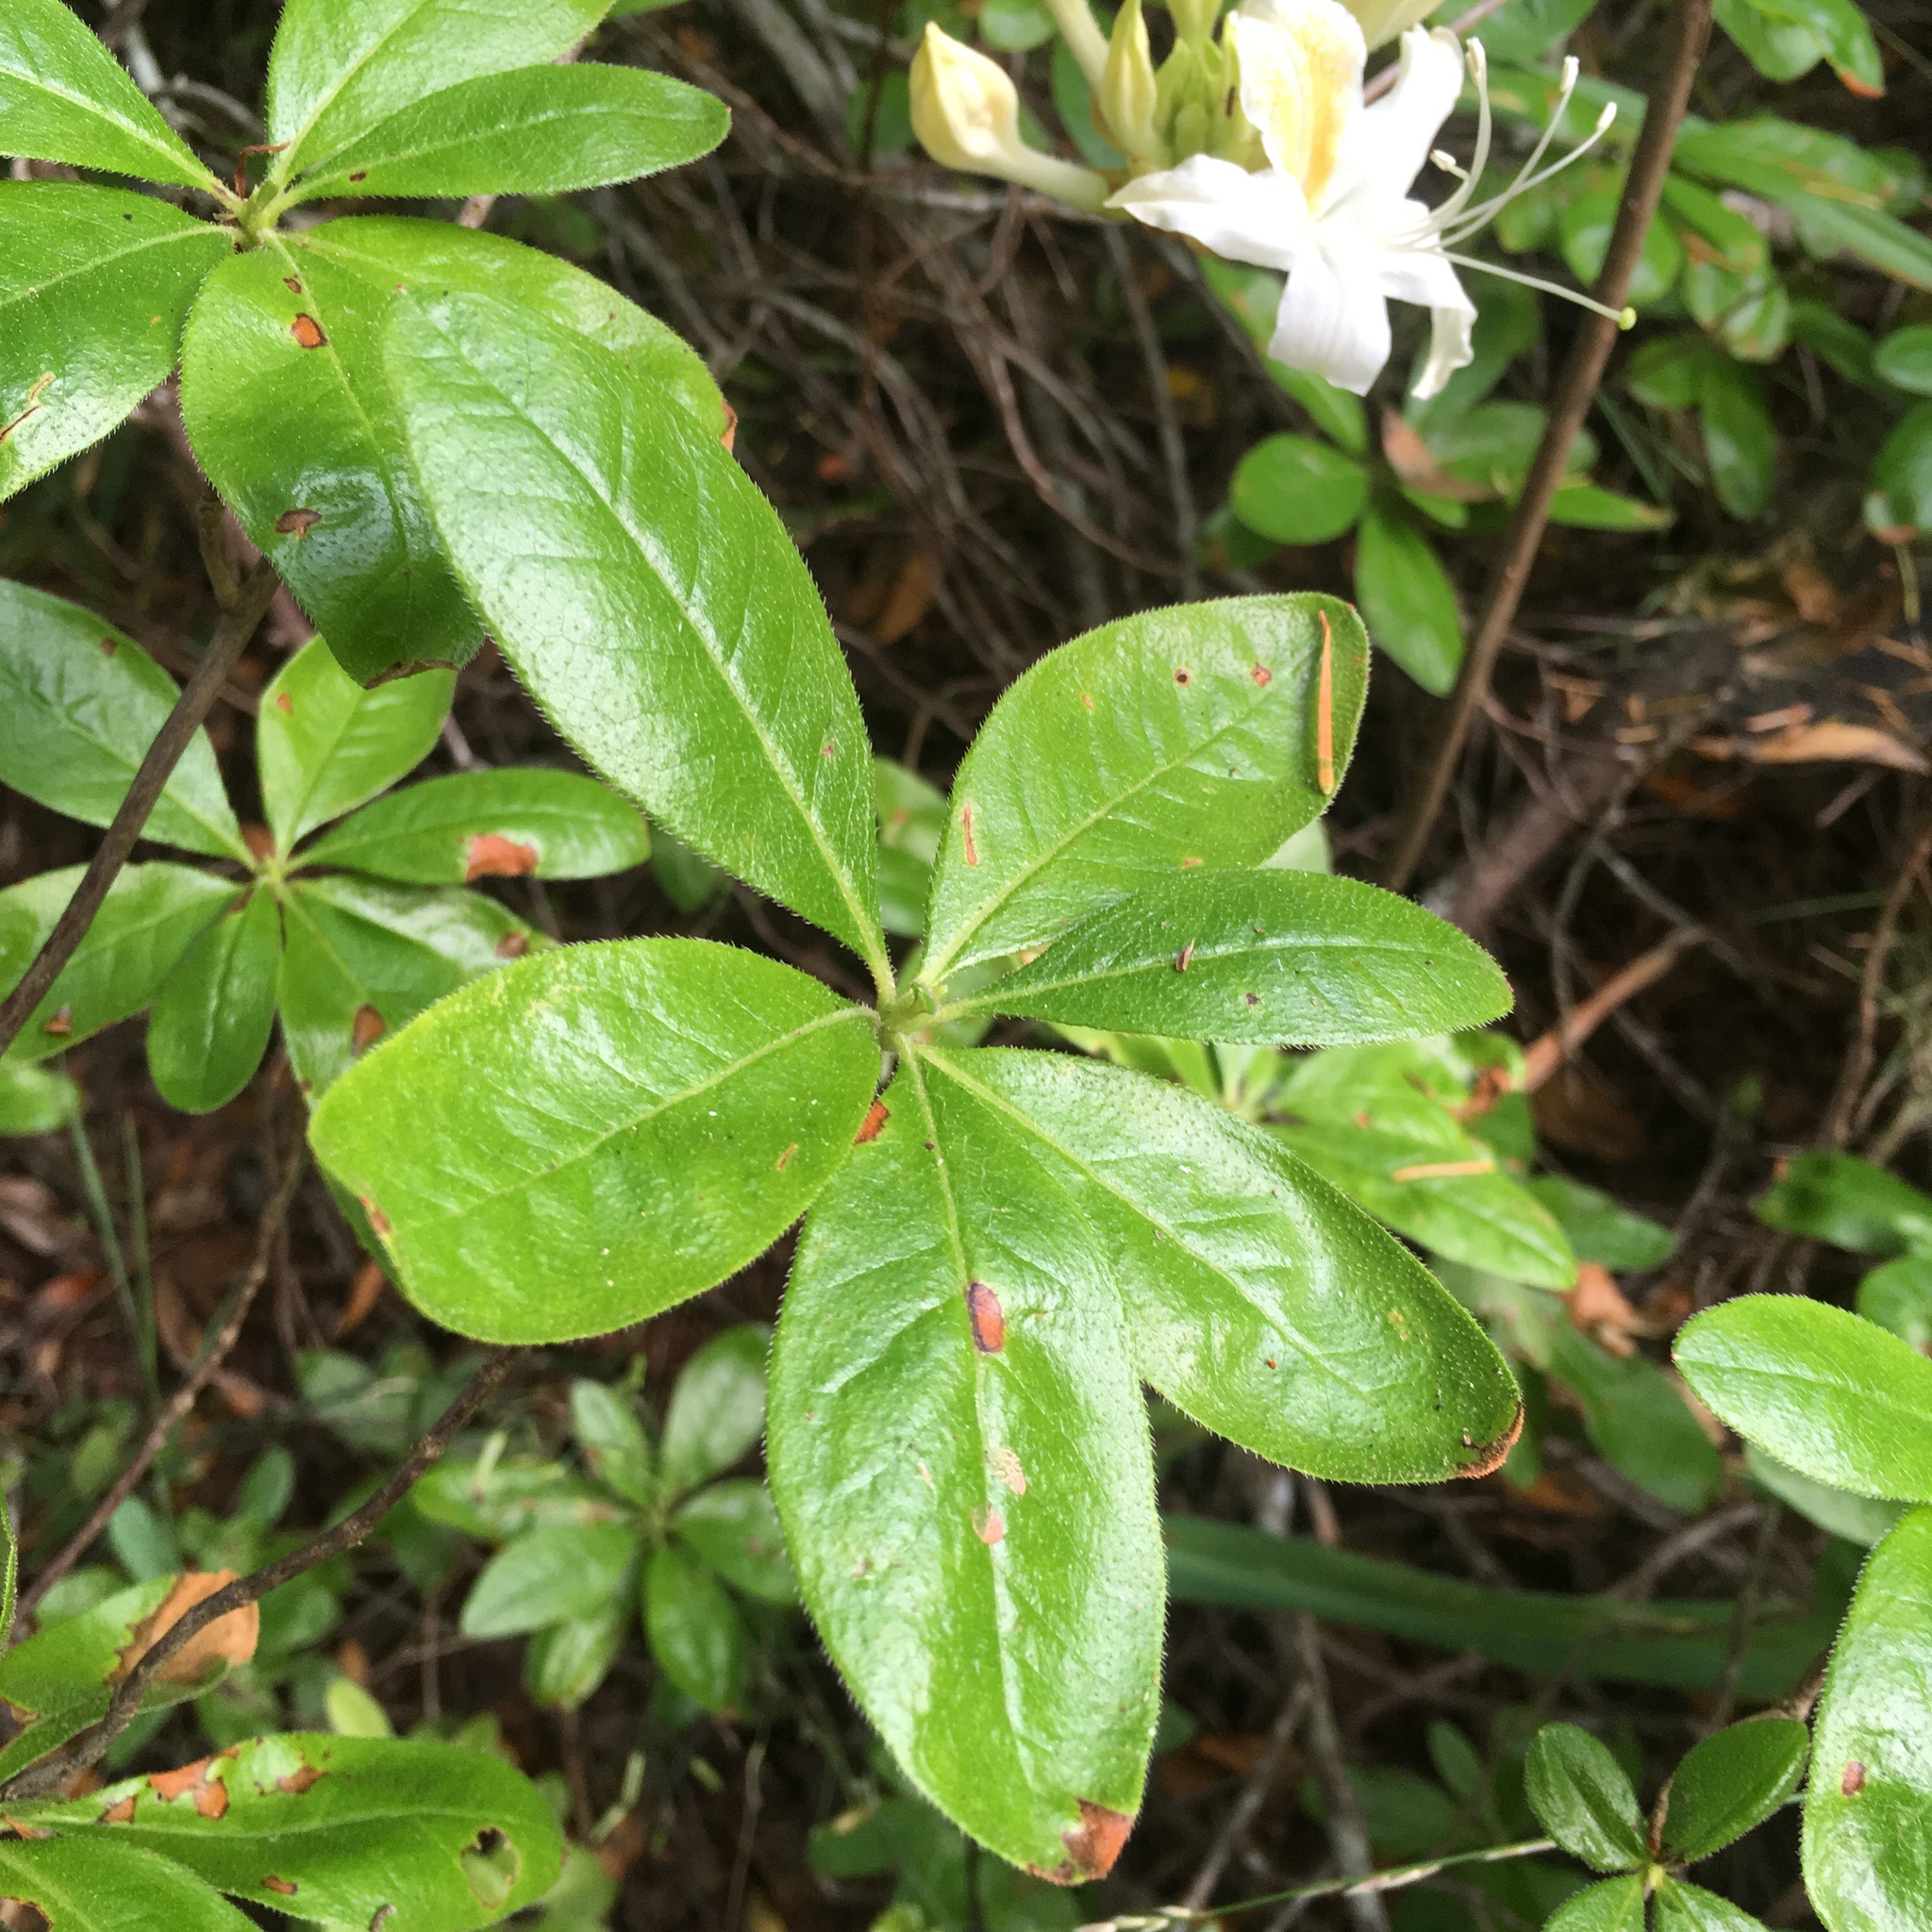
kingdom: Plantae
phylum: Tracheophyta
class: Magnoliopsida
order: Ericales
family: Ericaceae
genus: Rhododendron
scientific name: Rhododendron occidentale
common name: Western azalea
